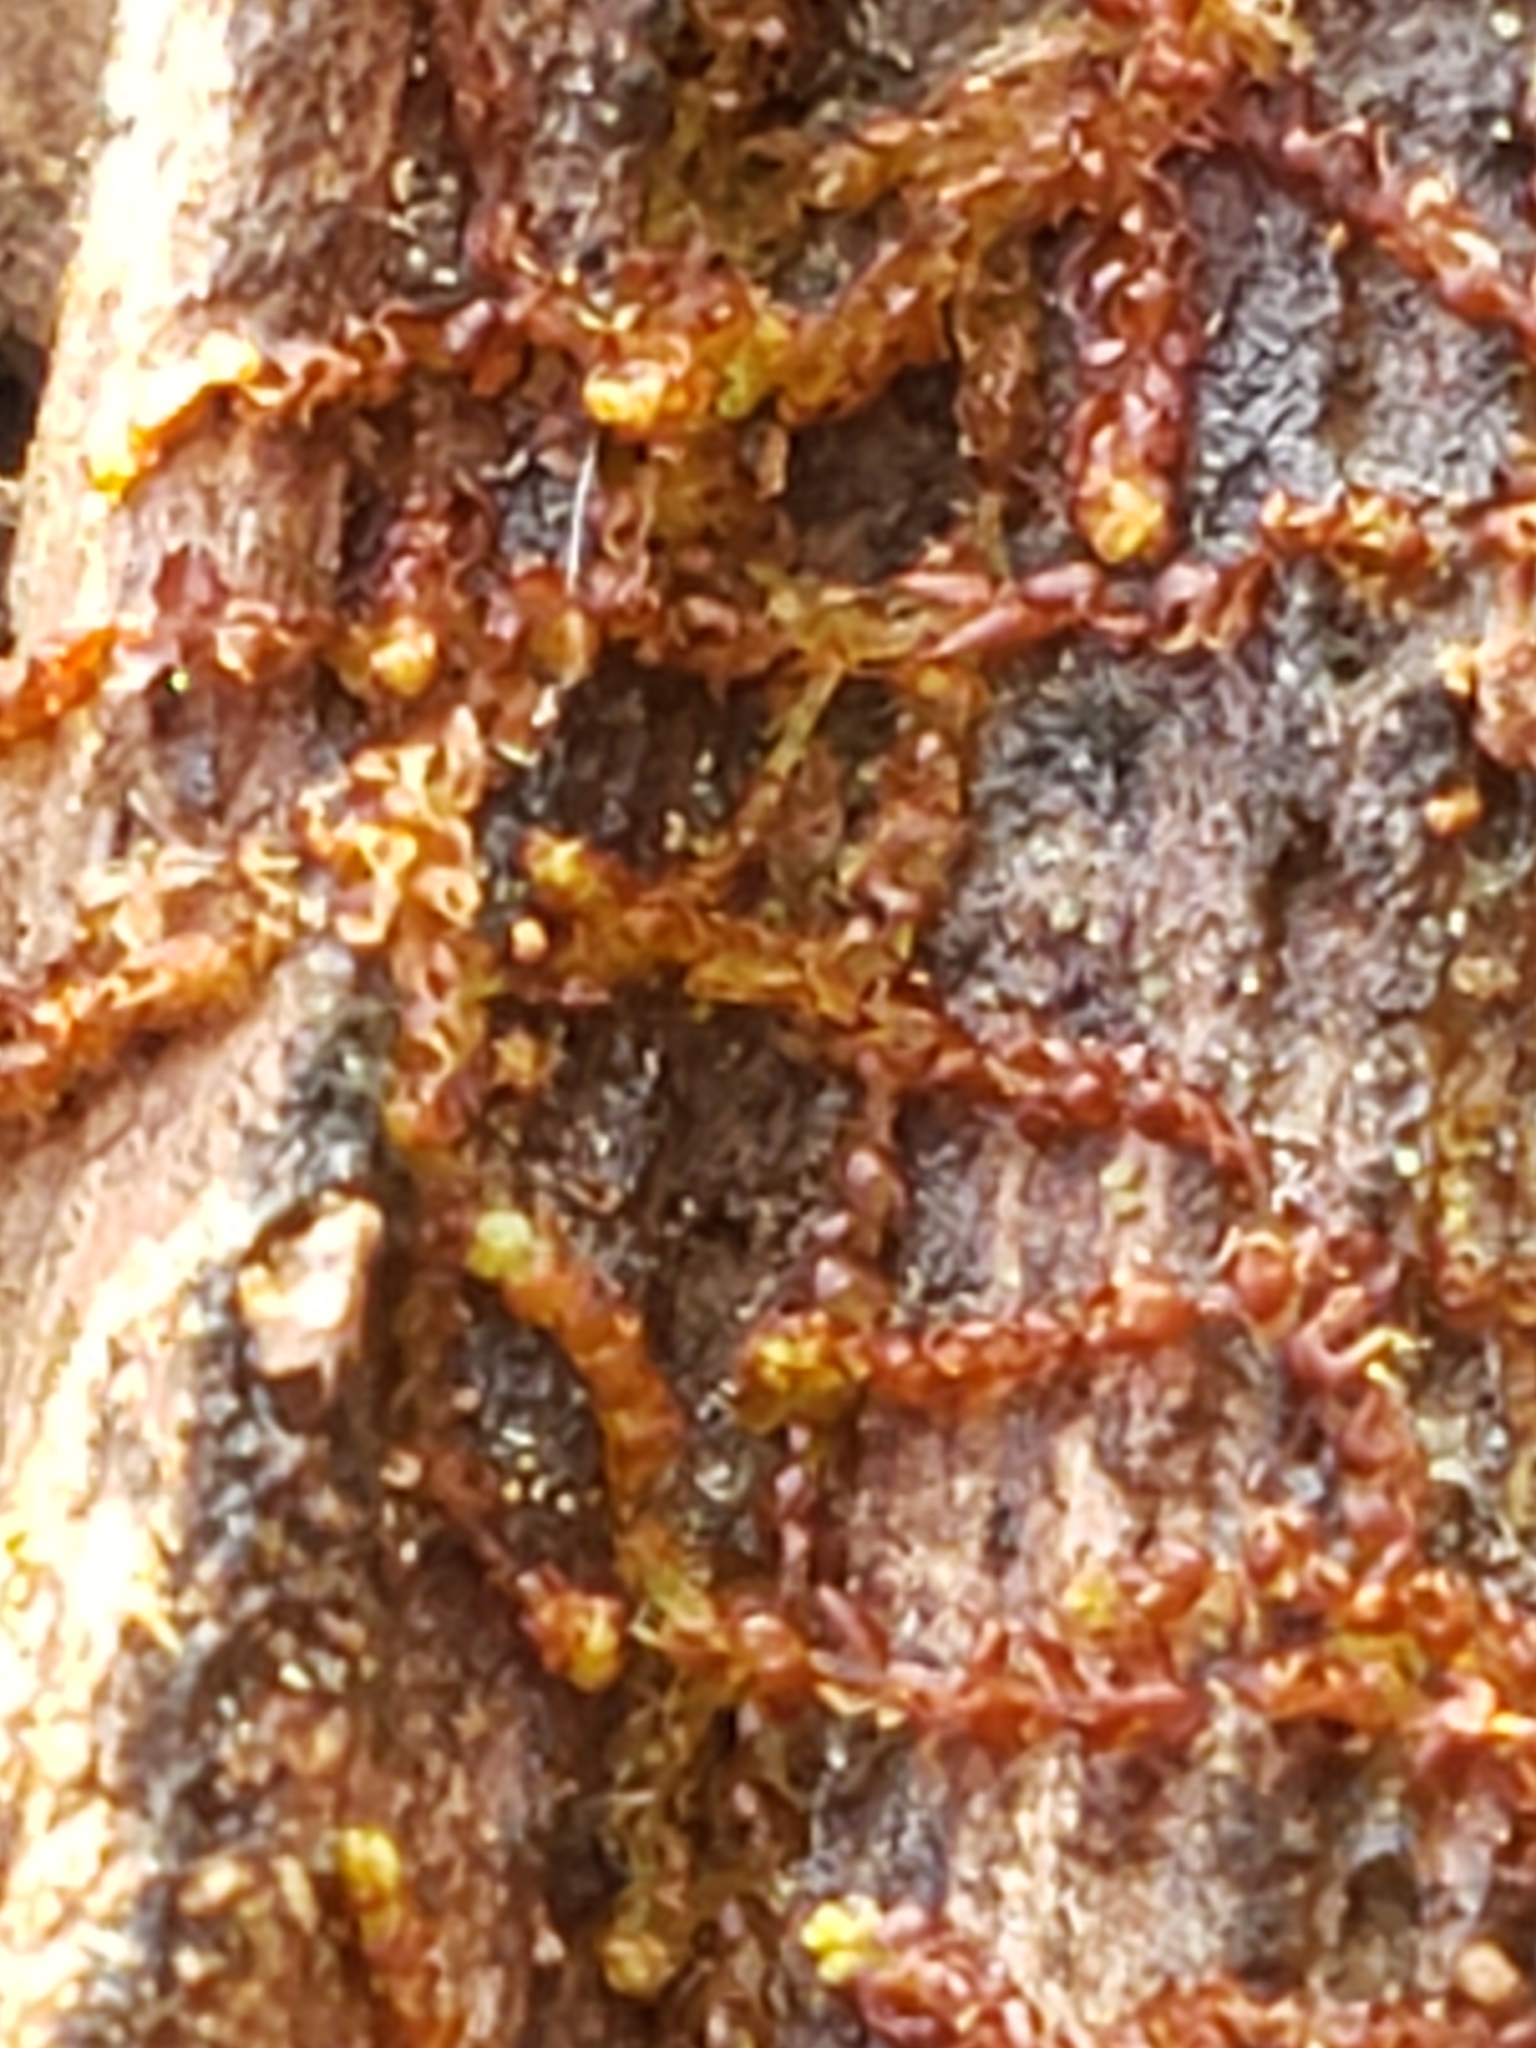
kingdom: Plantae
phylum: Marchantiophyta
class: Jungermanniopsida
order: Jungermanniales
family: Cephaloziaceae
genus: Nowellia
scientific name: Nowellia curvifolia
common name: Wood rustwort
